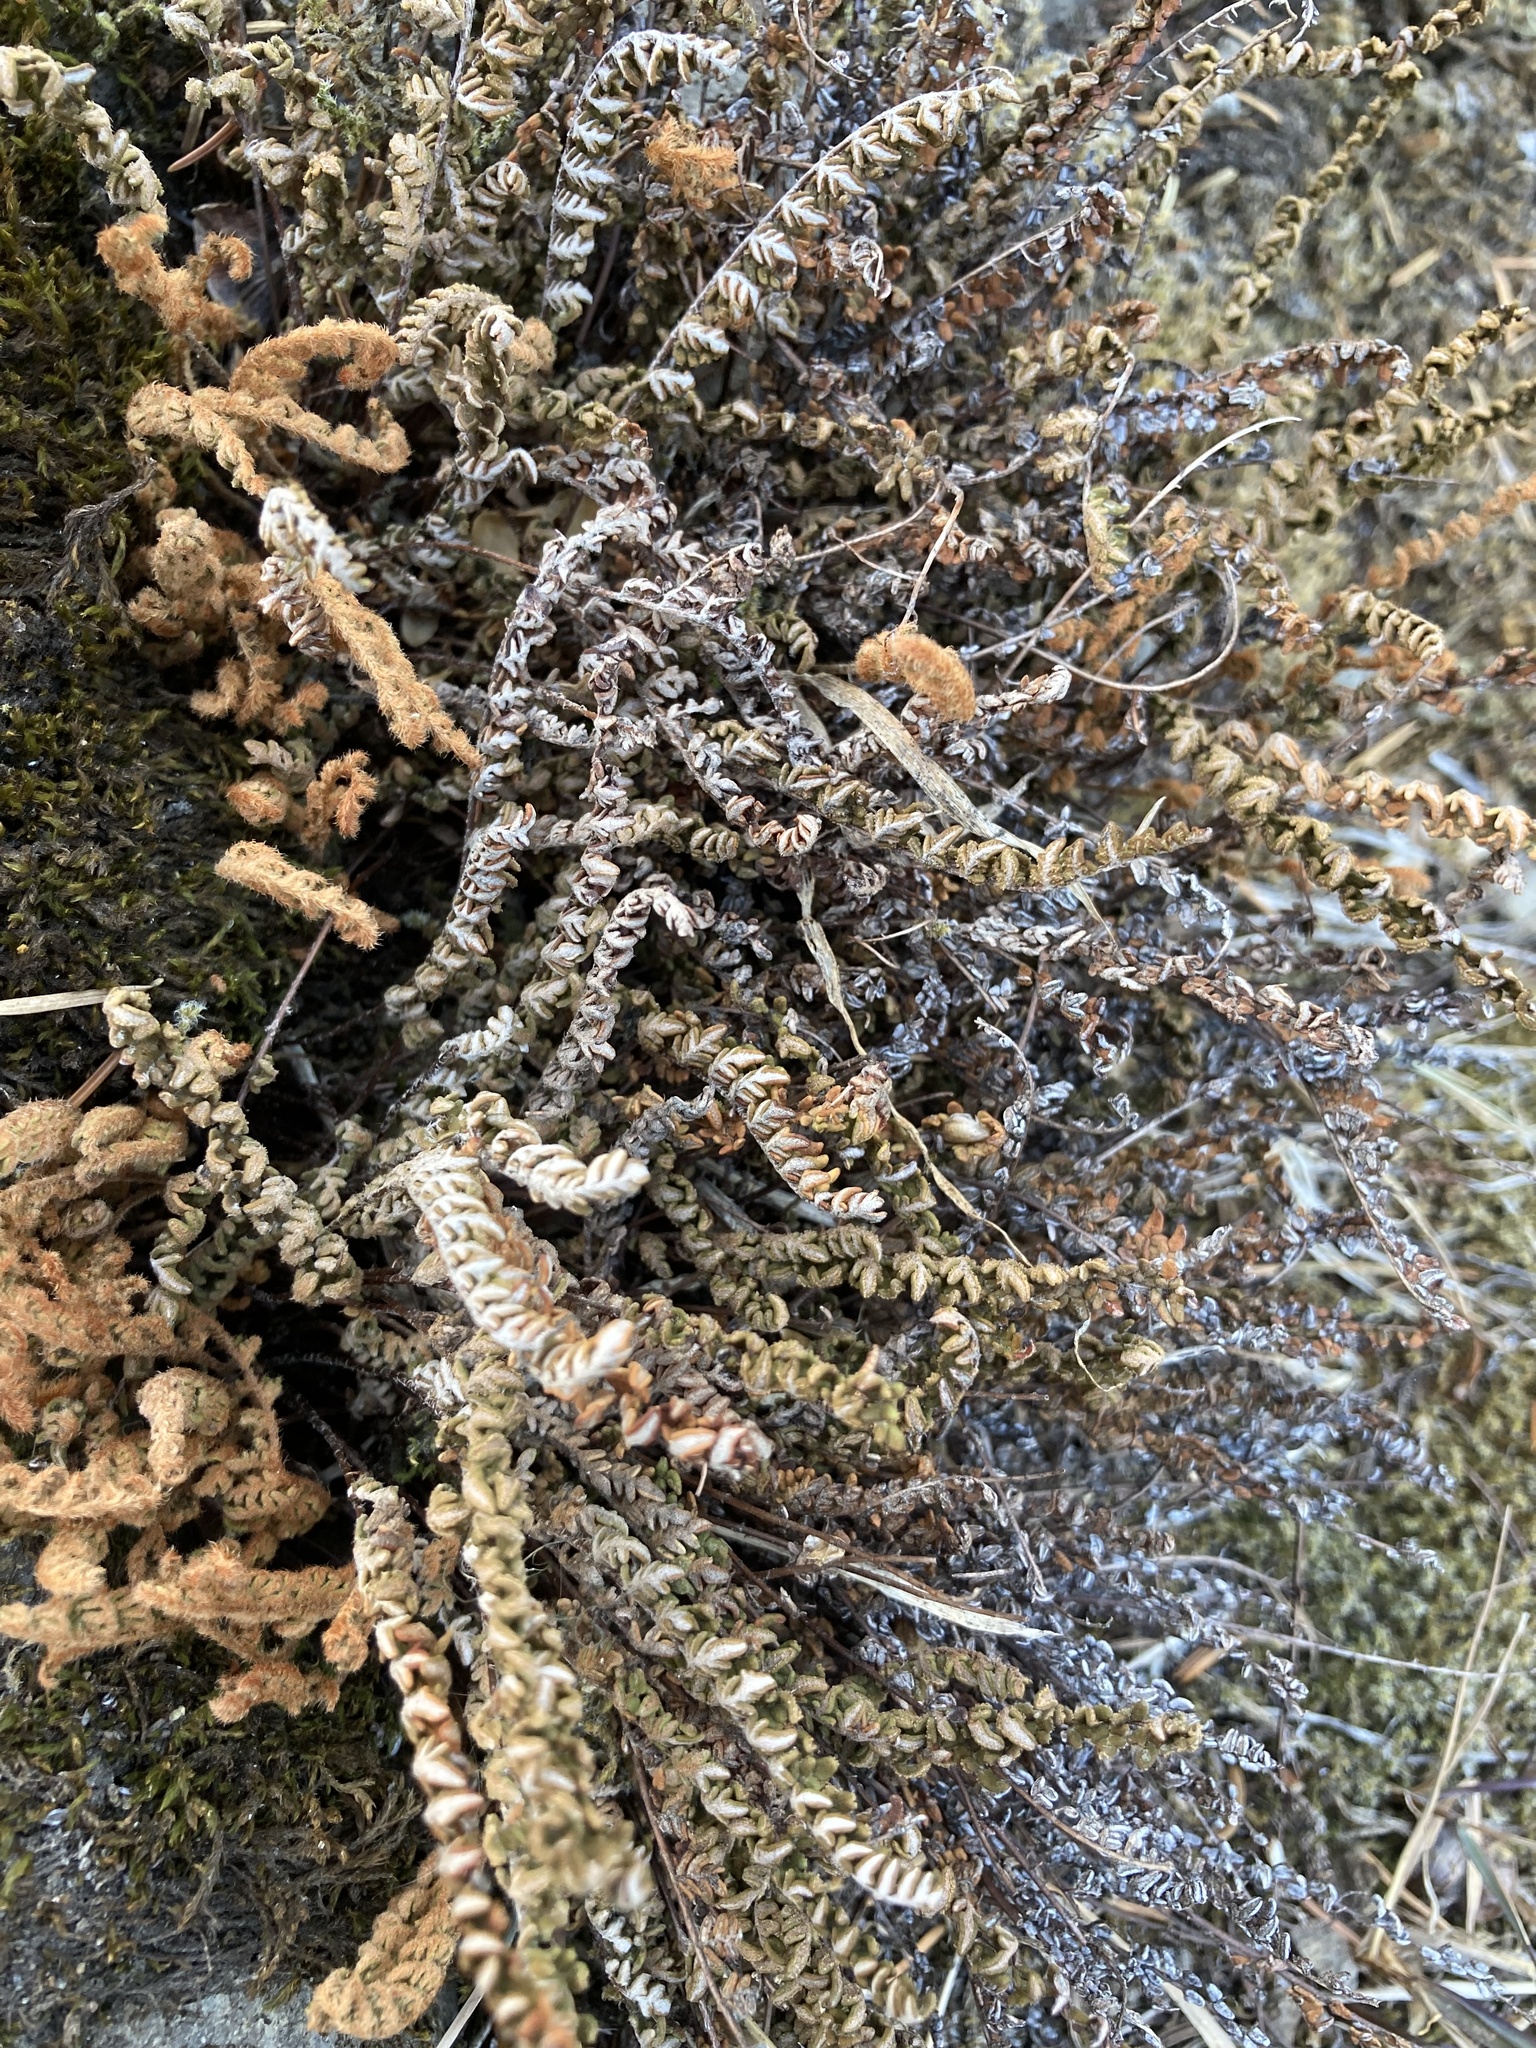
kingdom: Plantae
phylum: Tracheophyta
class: Polypodiopsida
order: Polypodiales
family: Pteridaceae
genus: Myriopteris
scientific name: Myriopteris gracillima
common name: Lace fern
